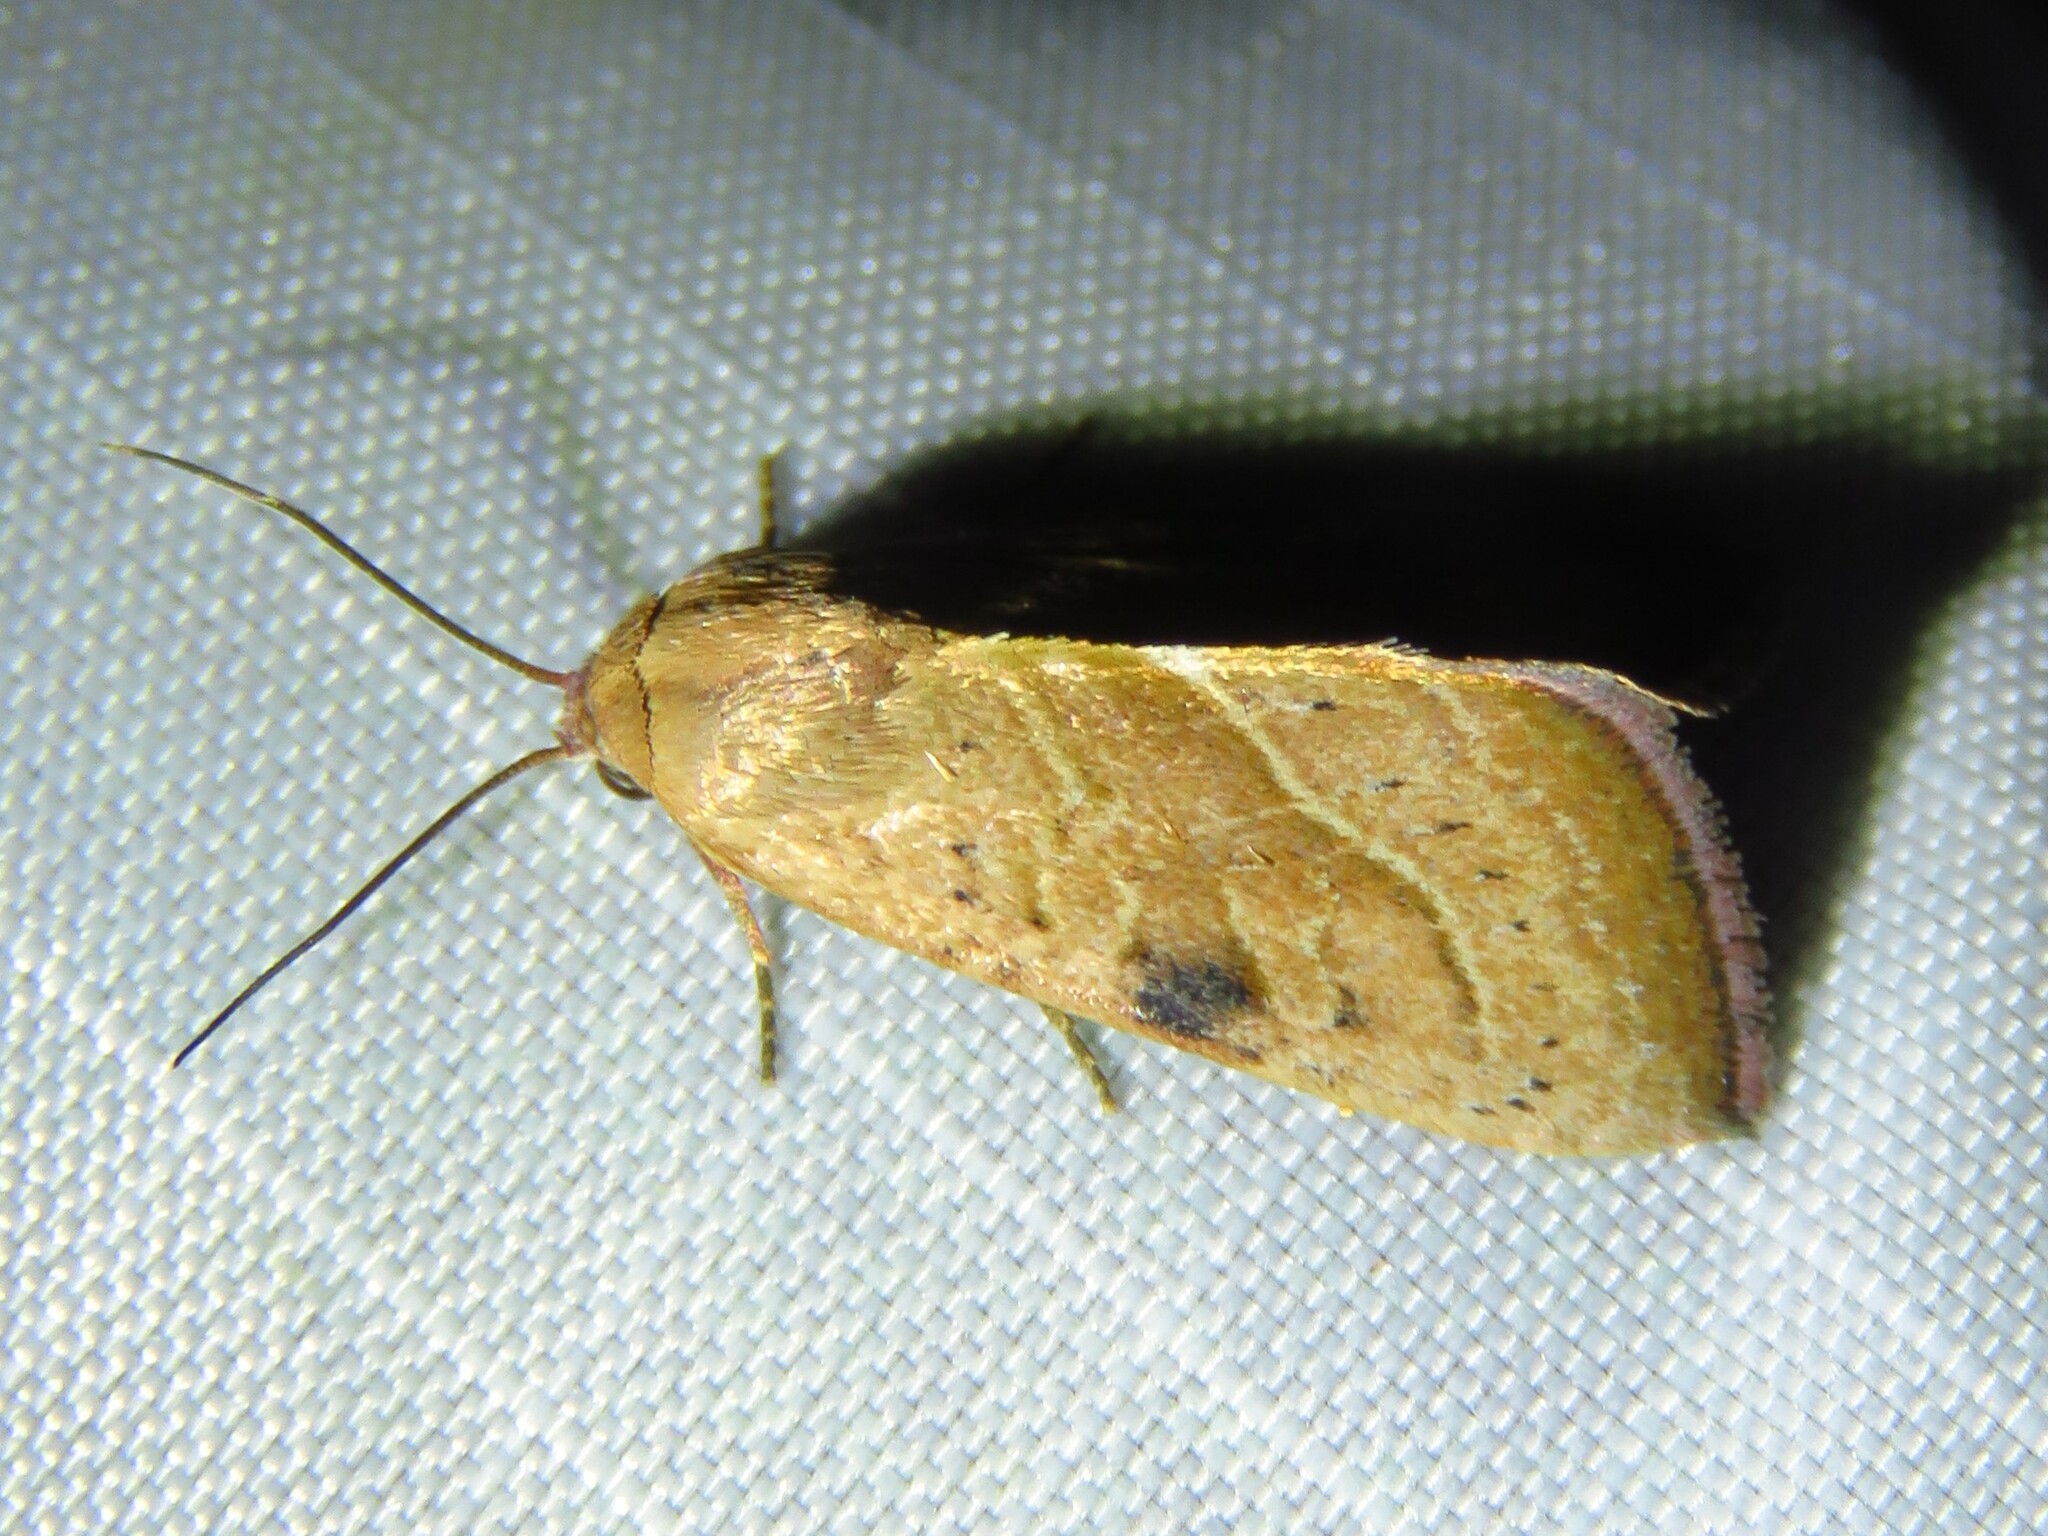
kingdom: Animalia
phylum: Arthropoda
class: Insecta
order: Lepidoptera
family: Noctuidae
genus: Galgula
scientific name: Galgula partita
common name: Wedgeling
